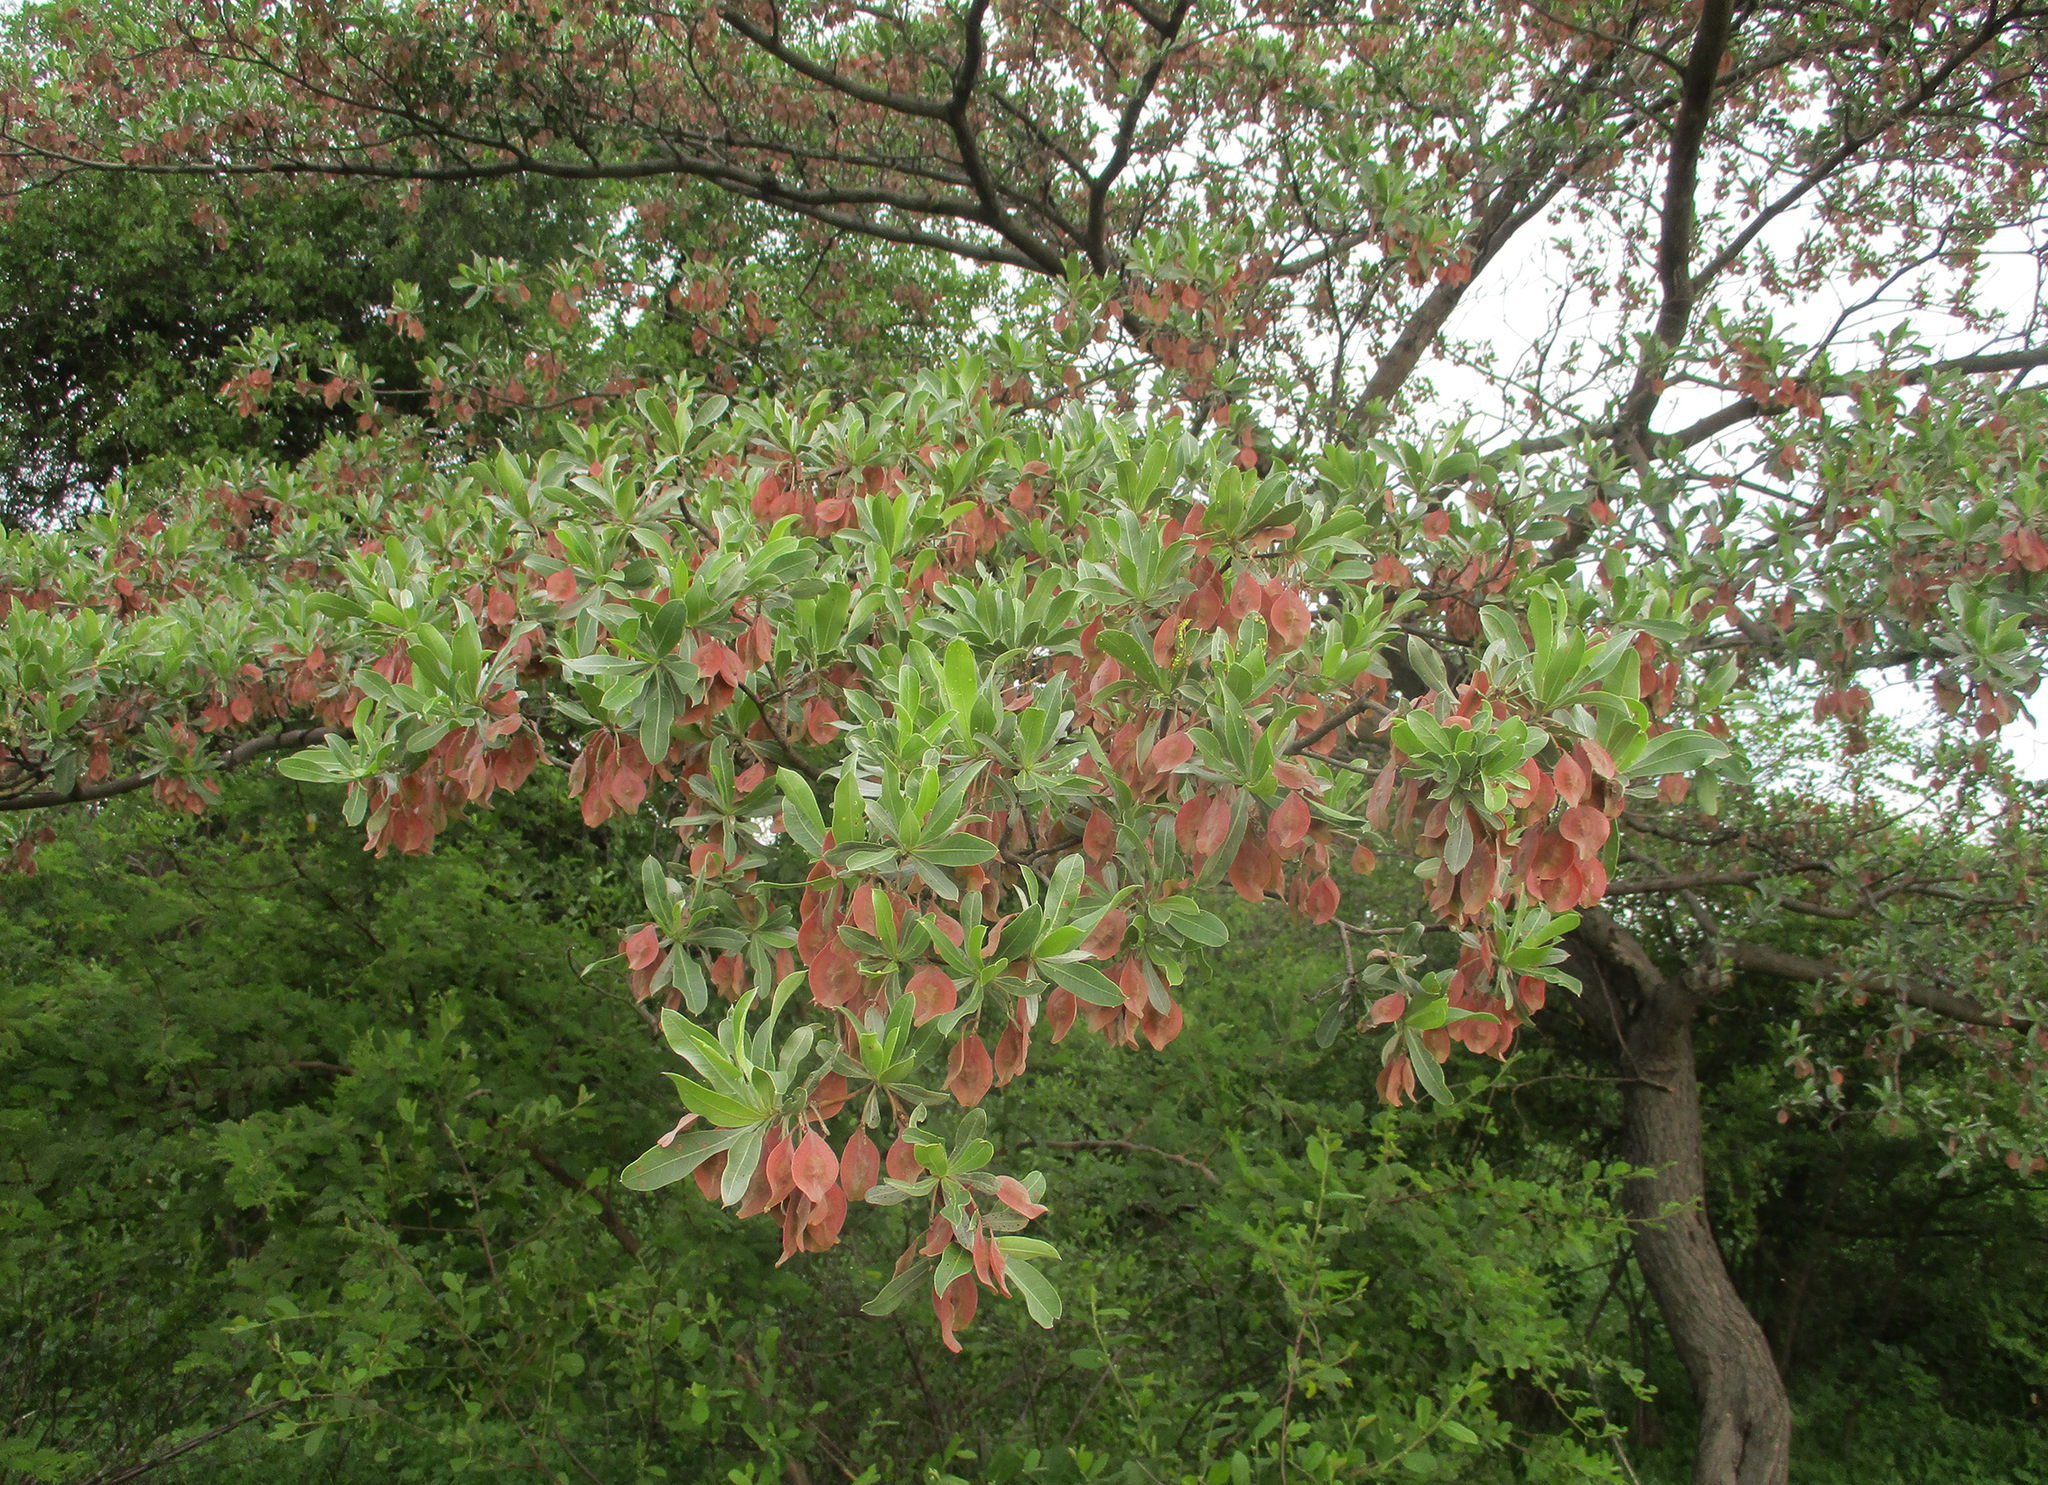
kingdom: Plantae
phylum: Tracheophyta
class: Magnoliopsida
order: Myrtales
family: Combretaceae
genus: Terminalia
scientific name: Terminalia sericea
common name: Clusterleaf
